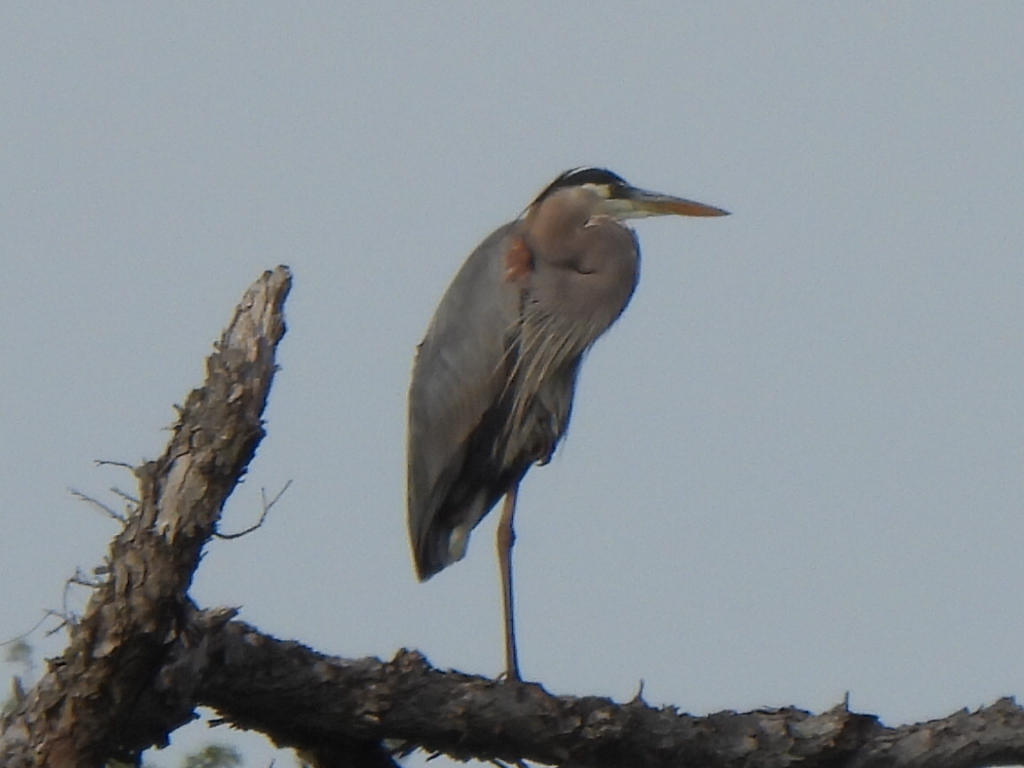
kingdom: Animalia
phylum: Chordata
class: Aves
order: Pelecaniformes
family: Ardeidae
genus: Ardea
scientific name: Ardea herodias
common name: Great blue heron
